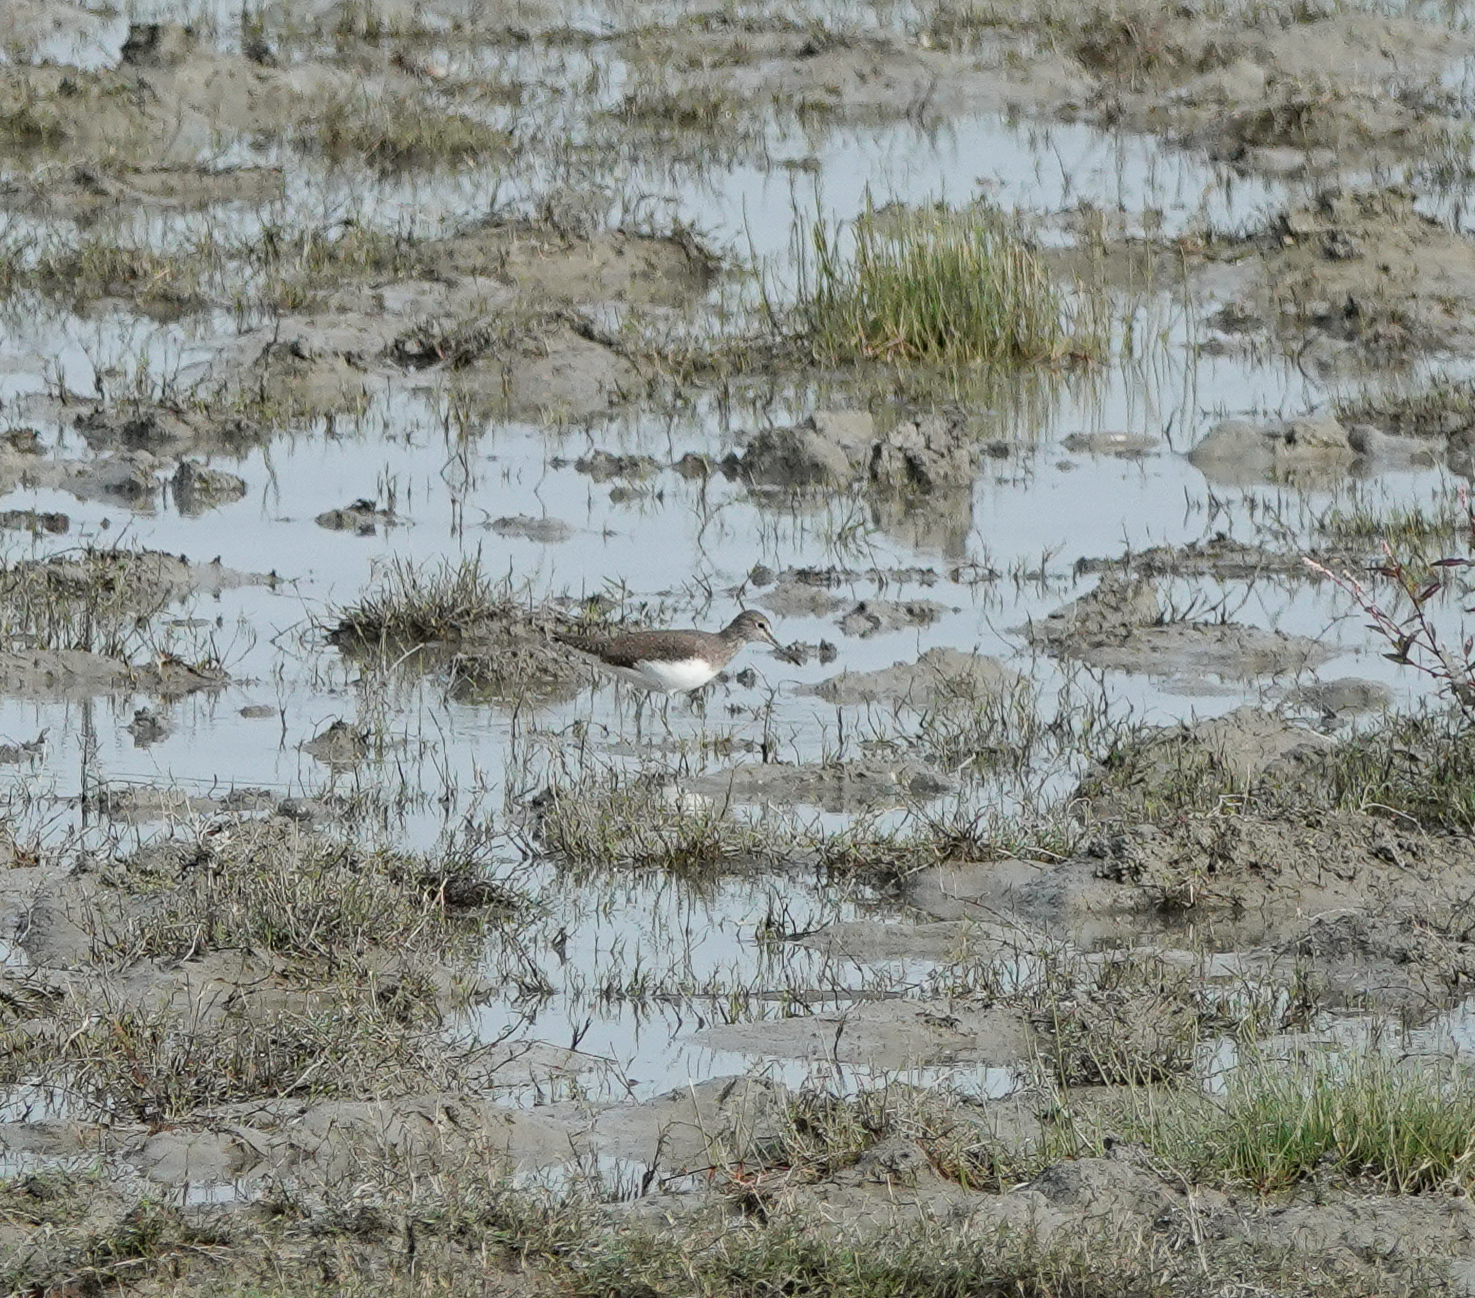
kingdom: Animalia
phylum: Chordata
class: Aves
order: Charadriiformes
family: Scolopacidae
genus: Tringa
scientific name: Tringa ochropus
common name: Green sandpiper
